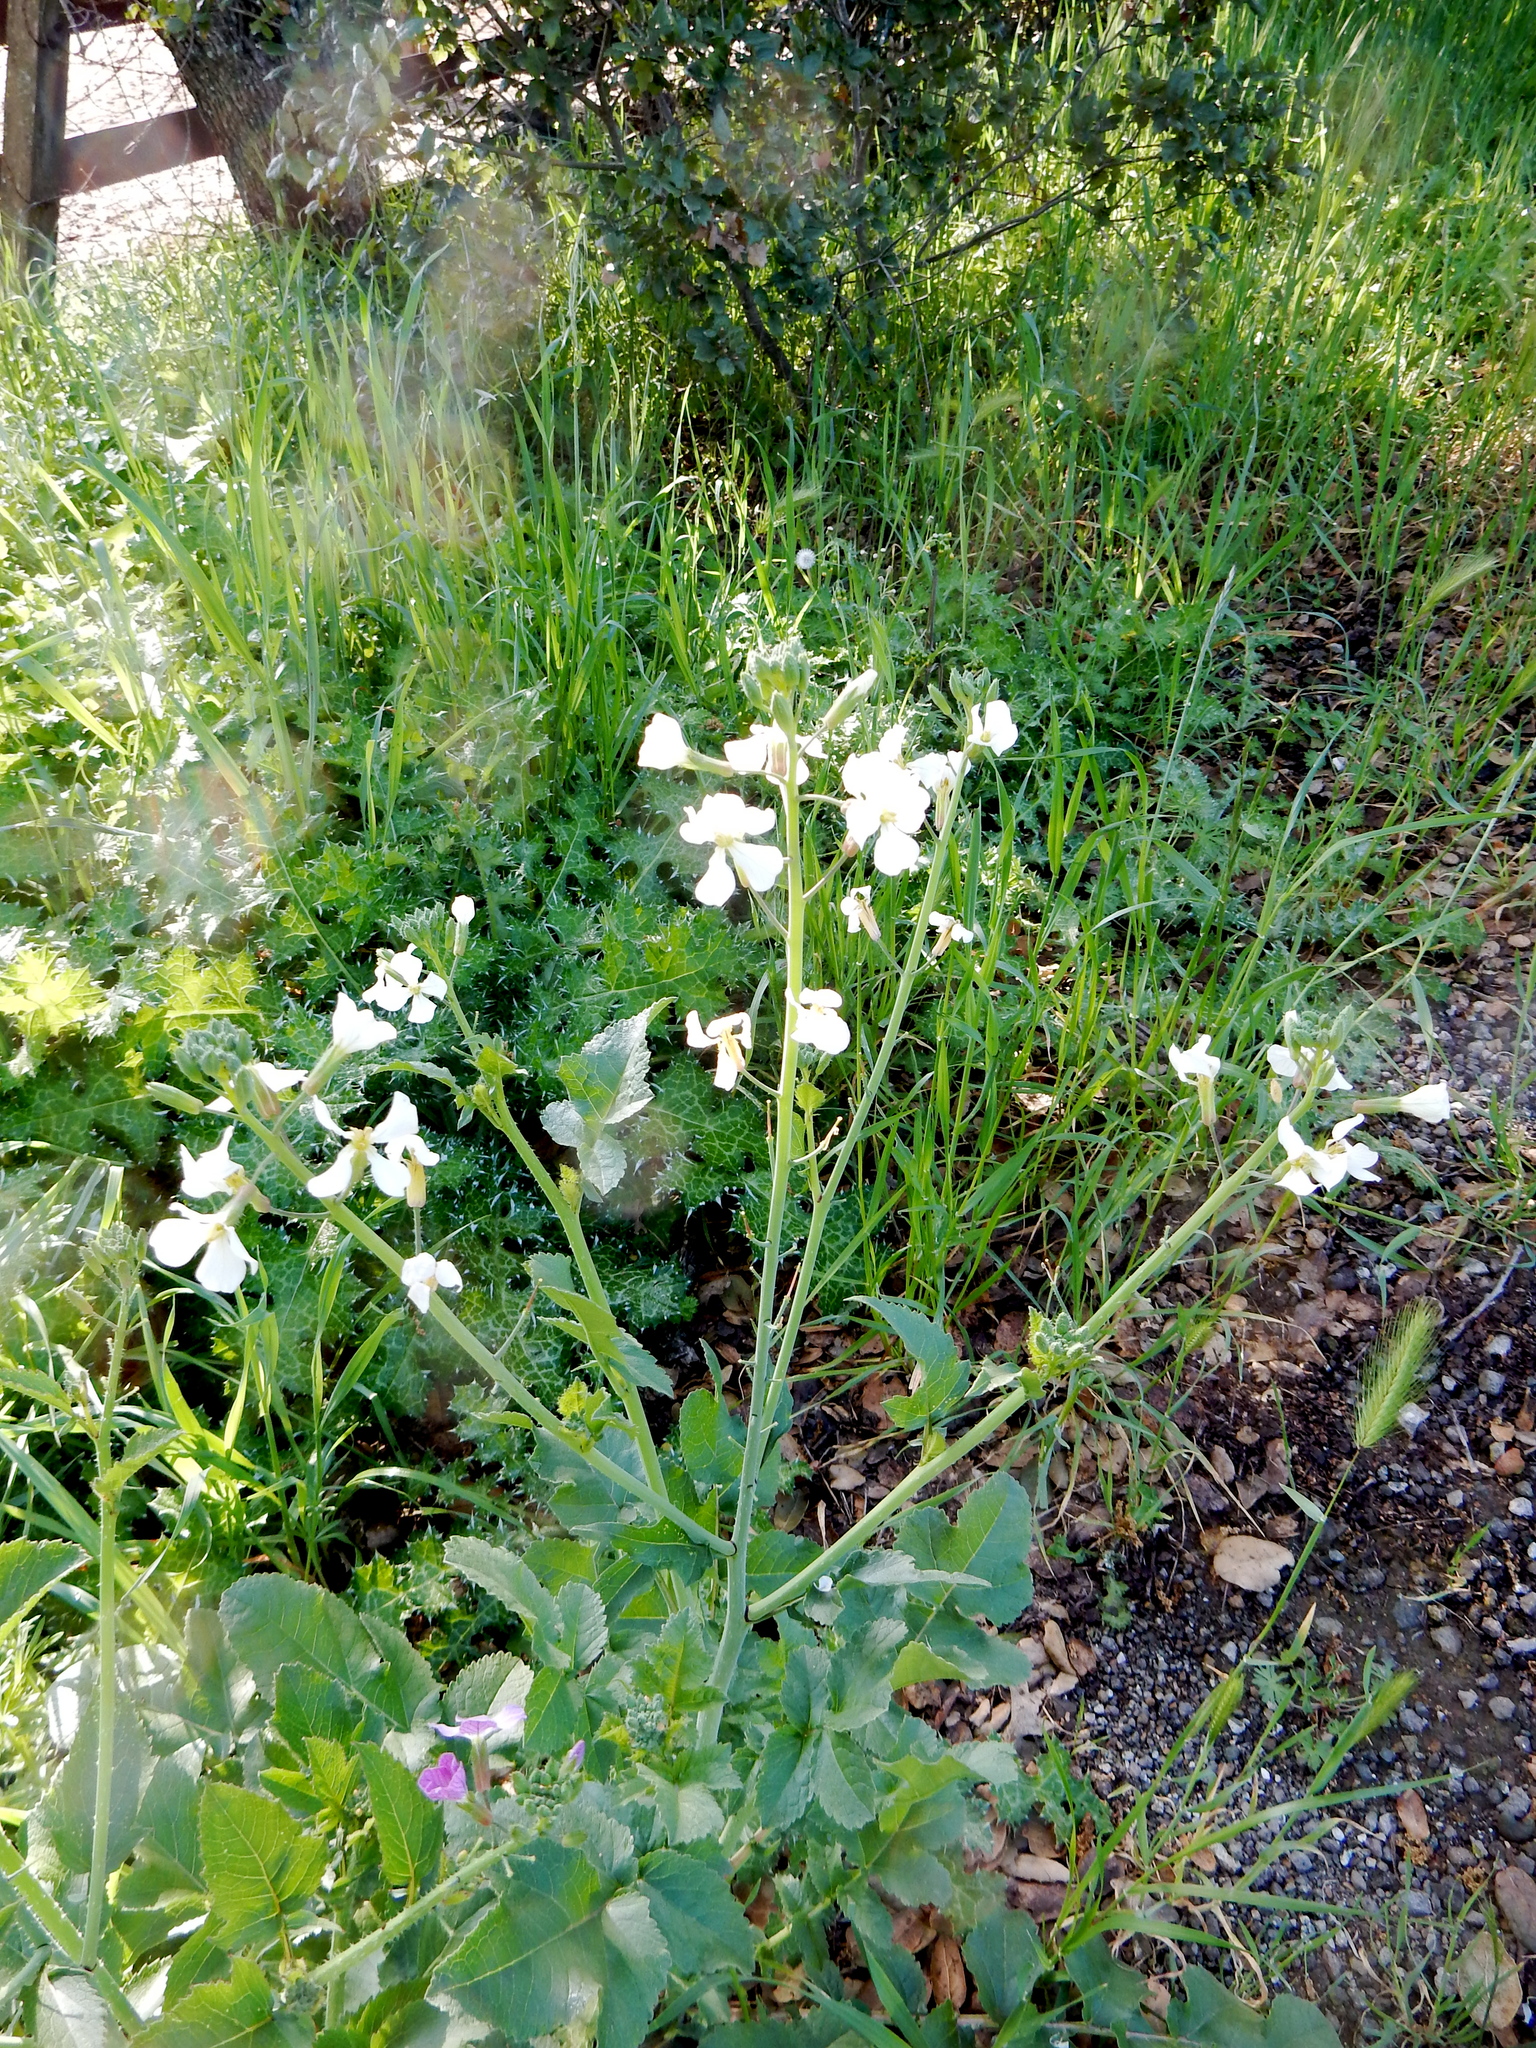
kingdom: Plantae
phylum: Tracheophyta
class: Magnoliopsida
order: Brassicales
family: Brassicaceae
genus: Raphanus
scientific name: Raphanus sativus
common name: Cultivated radish
